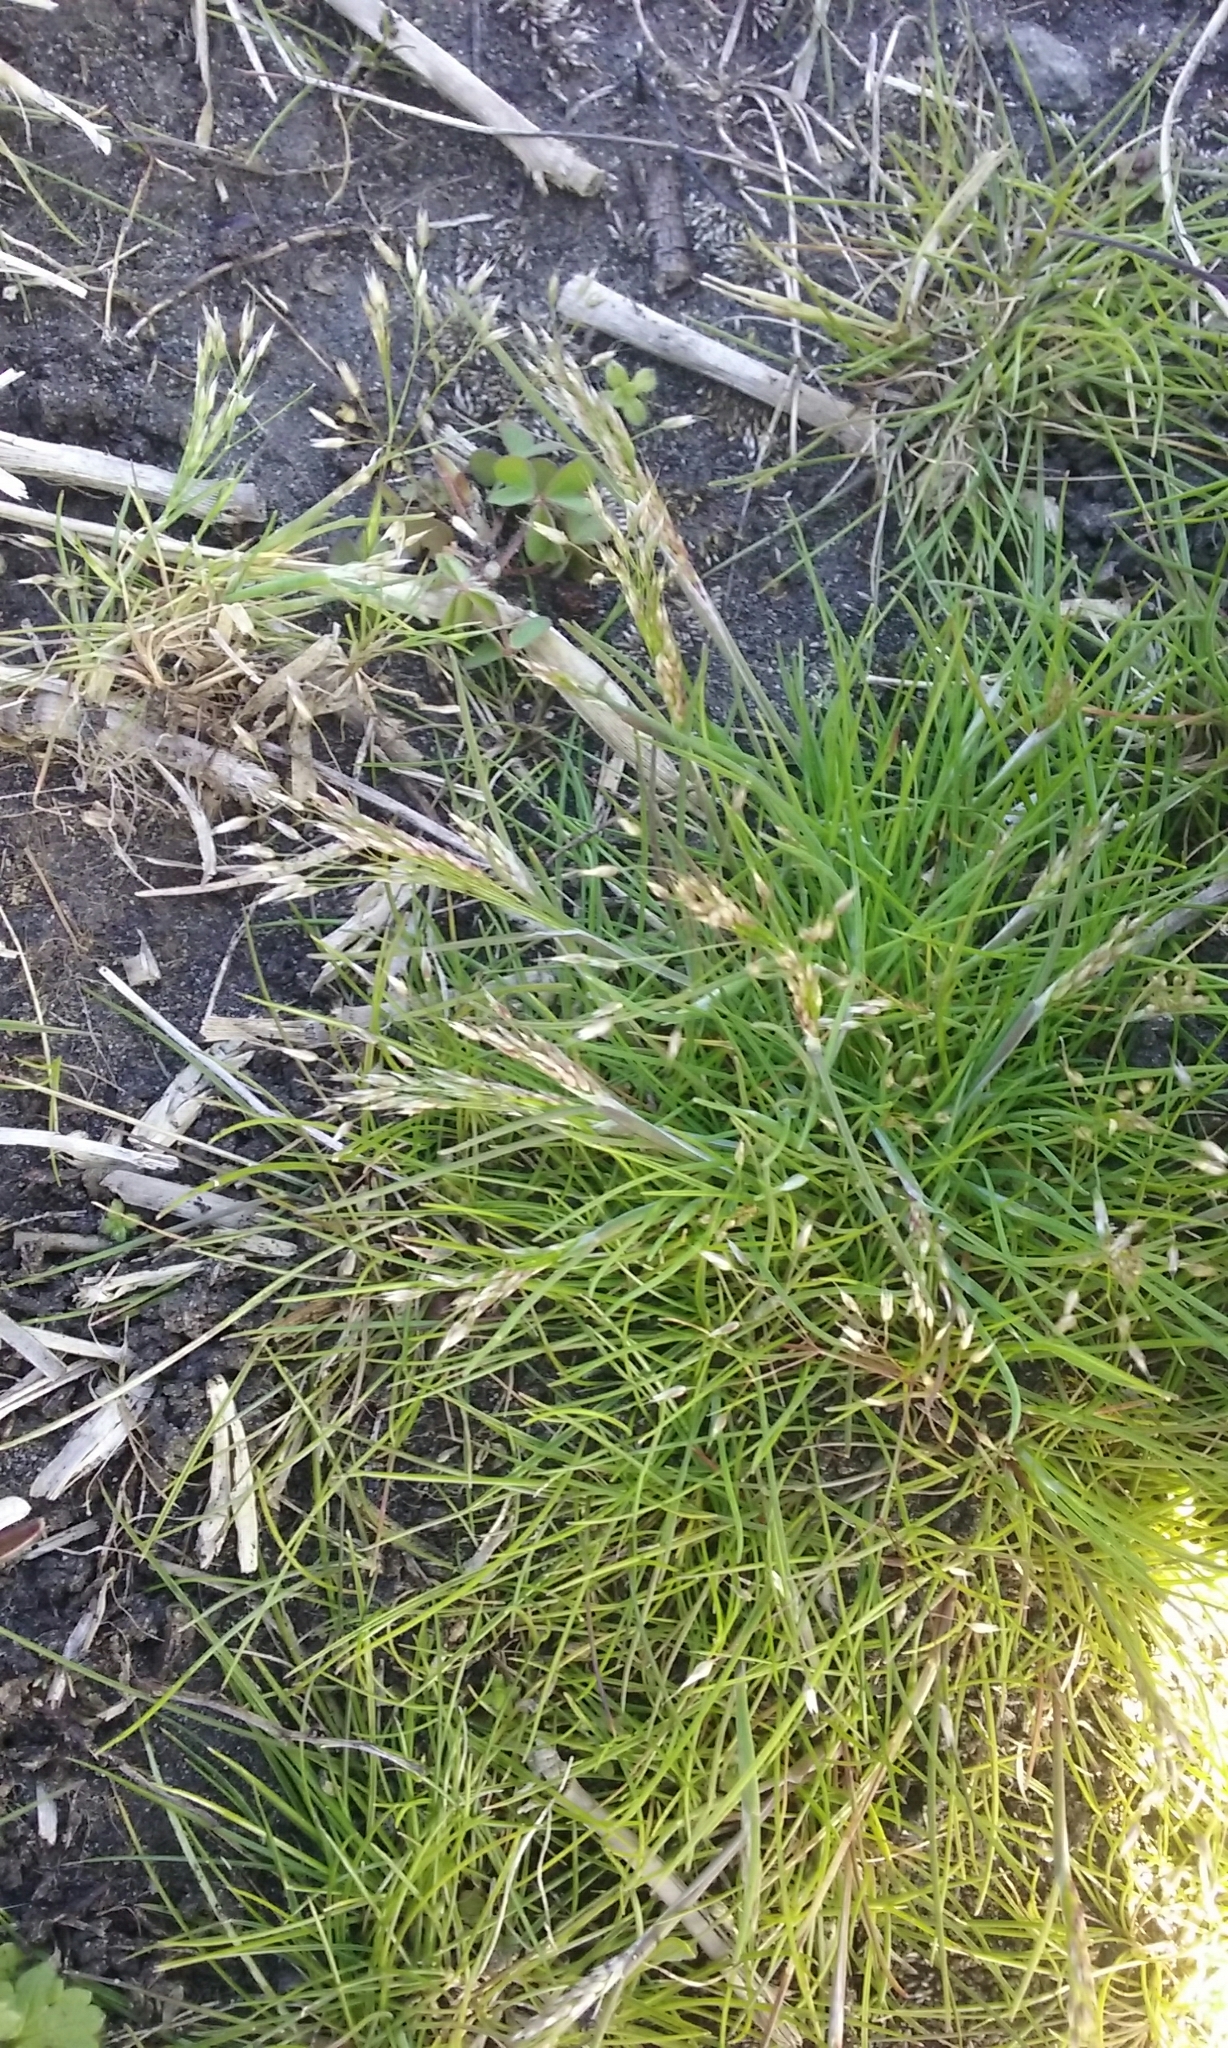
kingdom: Plantae
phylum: Tracheophyta
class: Liliopsida
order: Poales
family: Poaceae
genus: Aira
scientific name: Aira caryophyllea
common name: Silver hairgrass
